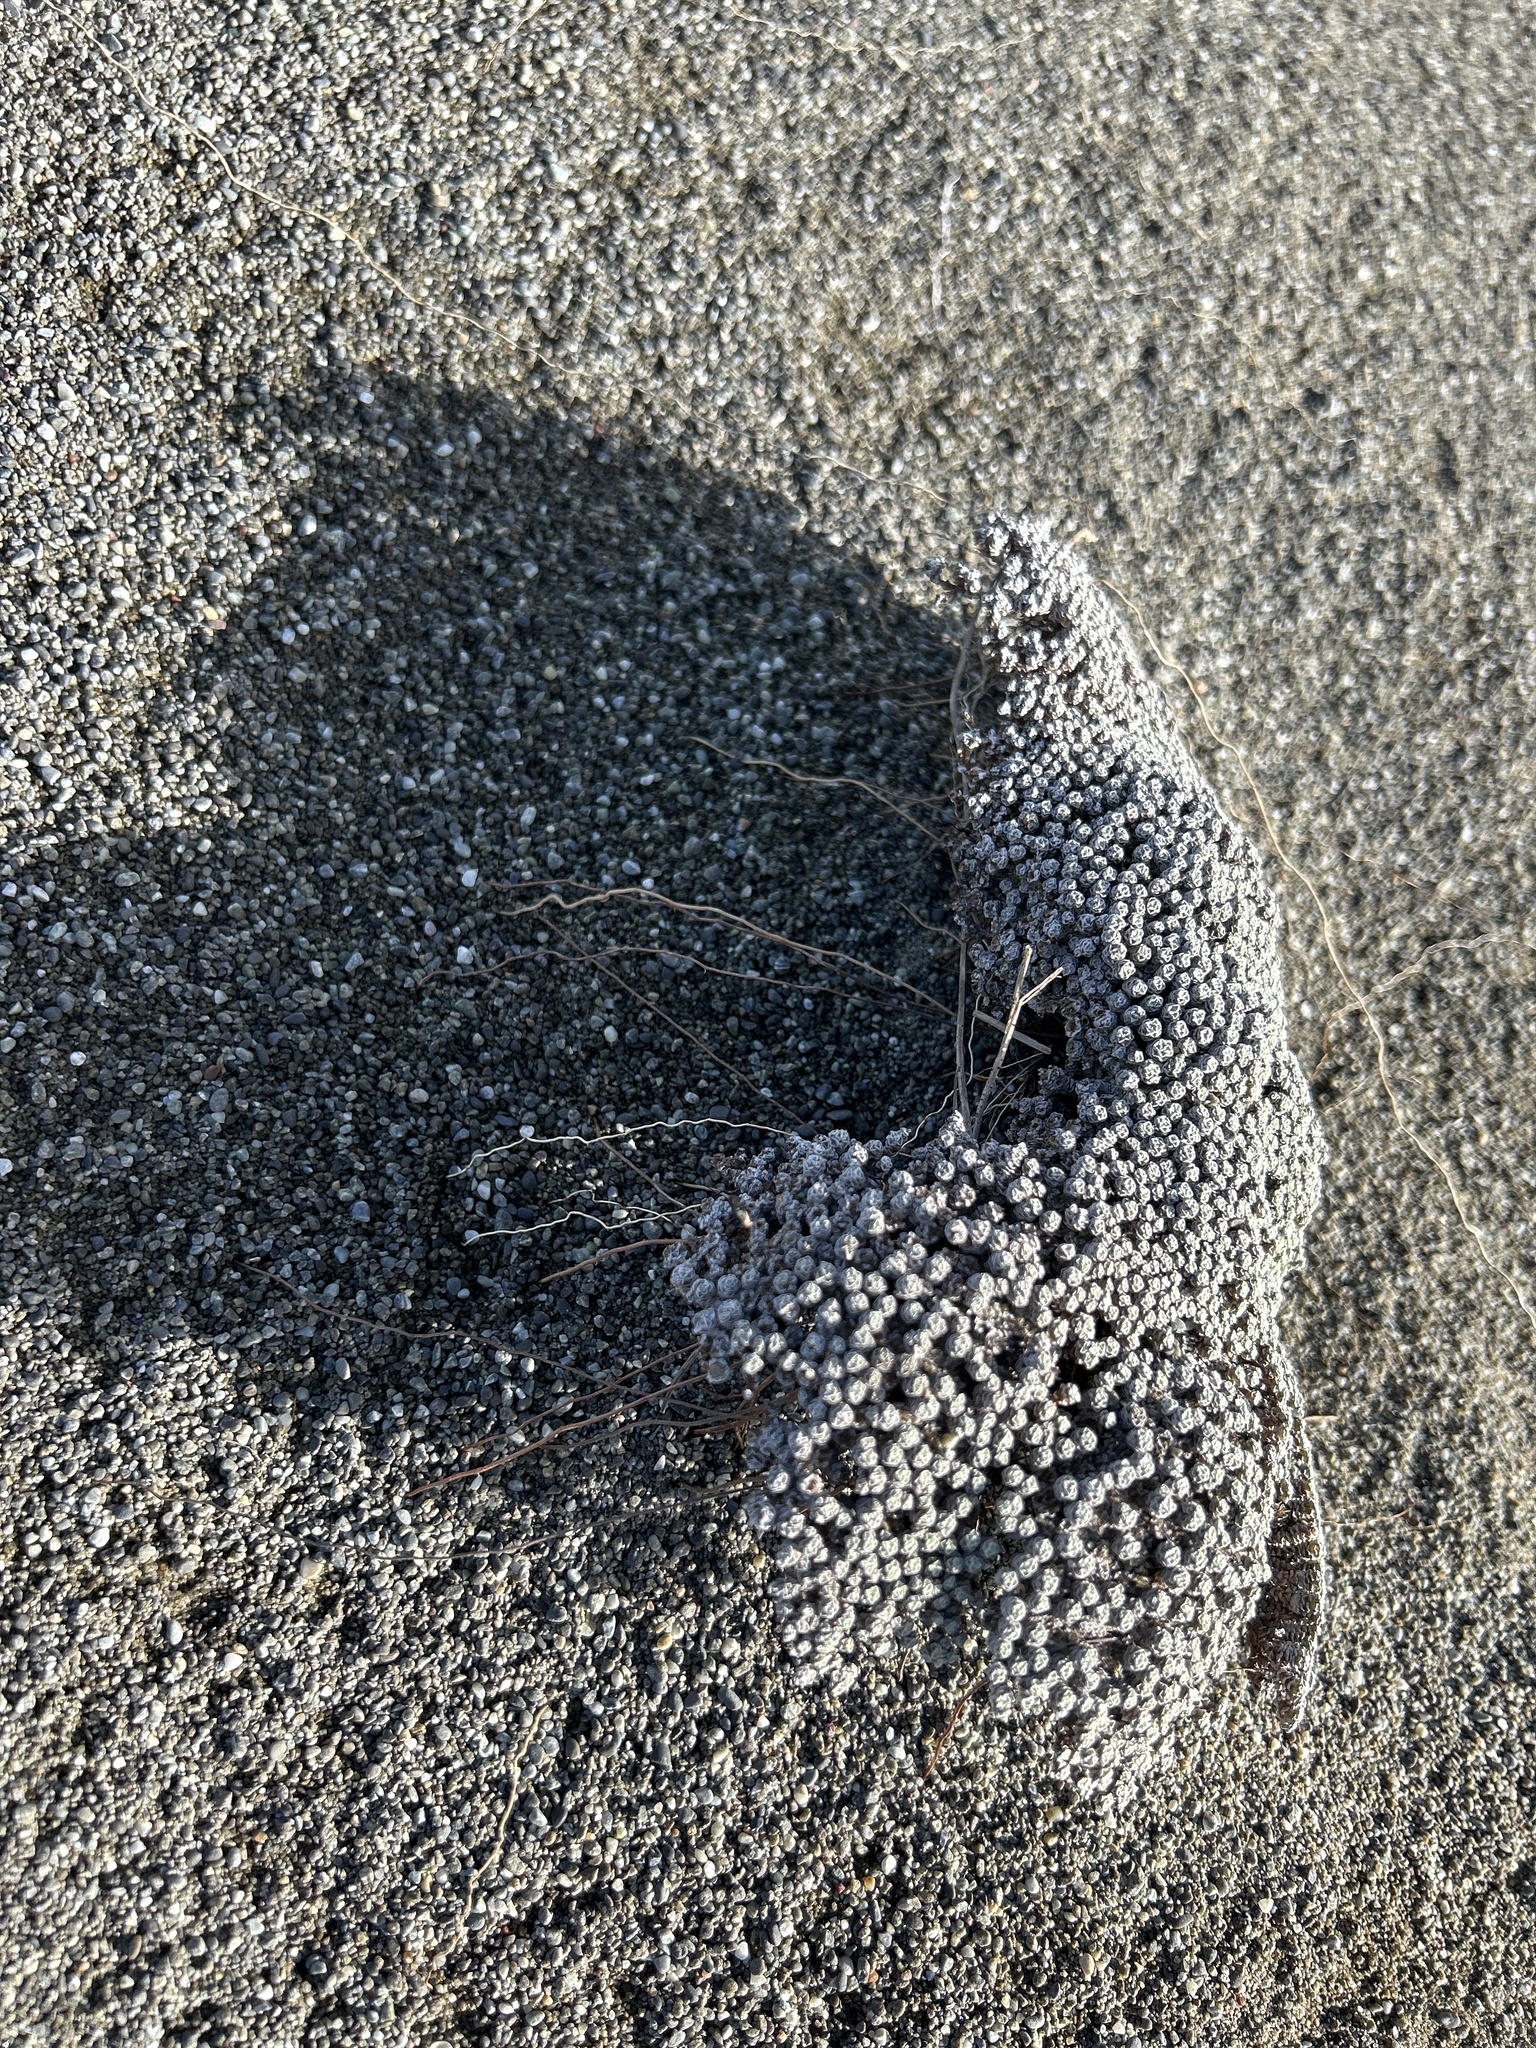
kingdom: Plantae
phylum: Tracheophyta
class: Magnoliopsida
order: Asterales
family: Asteraceae
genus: Raoulia
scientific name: Raoulia australis
